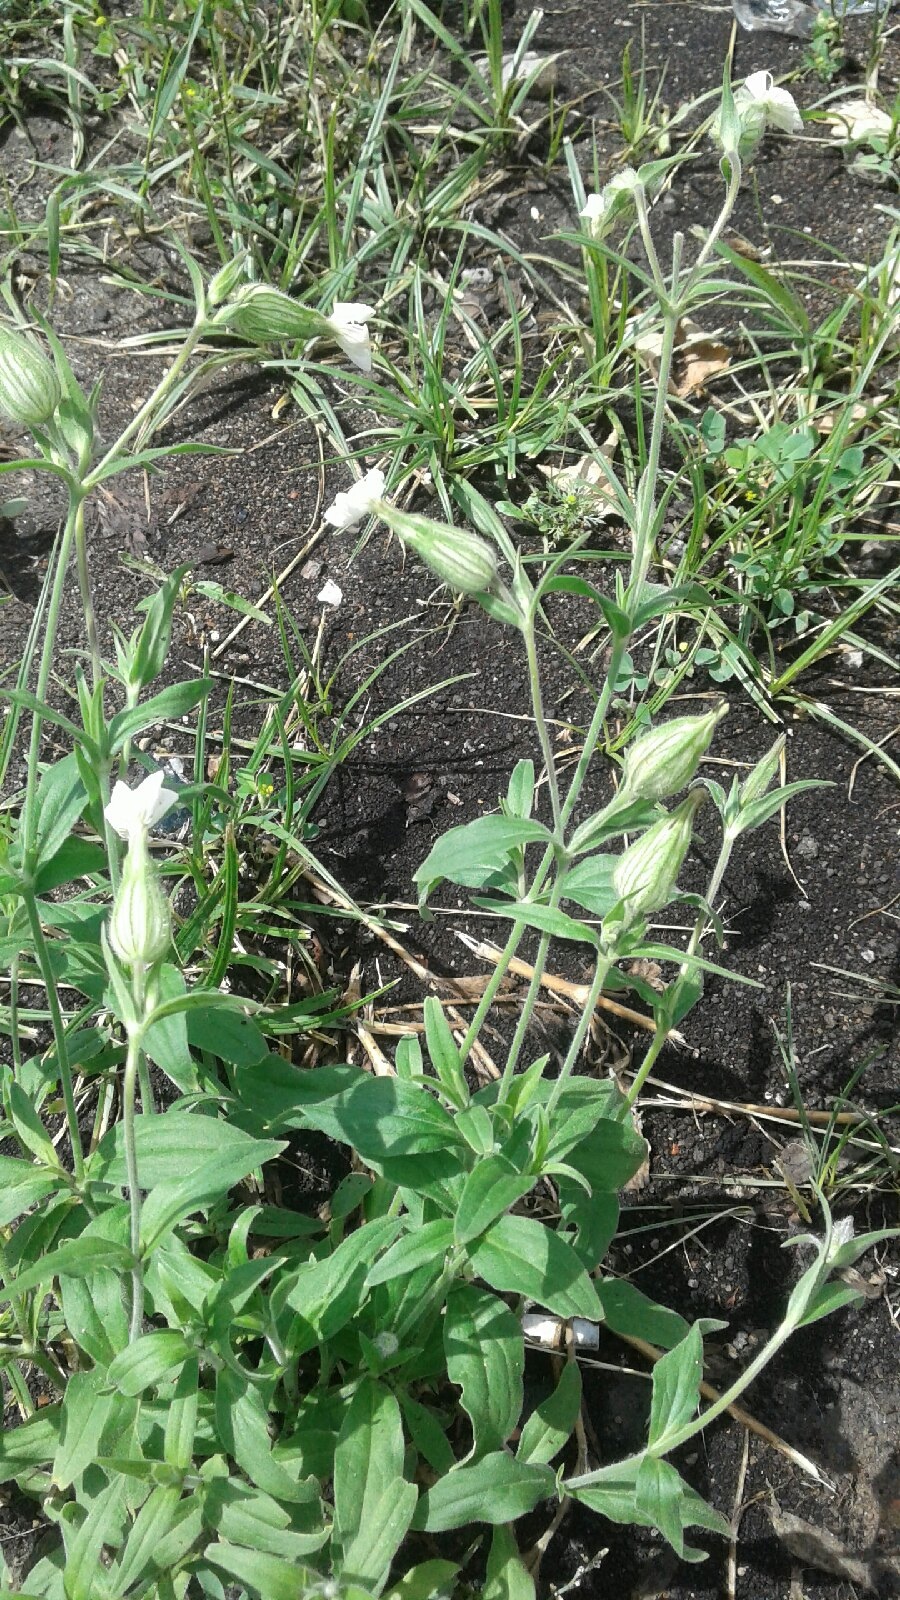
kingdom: Plantae
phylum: Tracheophyta
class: Magnoliopsida
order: Caryophyllales
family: Caryophyllaceae
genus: Silene
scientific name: Silene latifolia
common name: White campion
